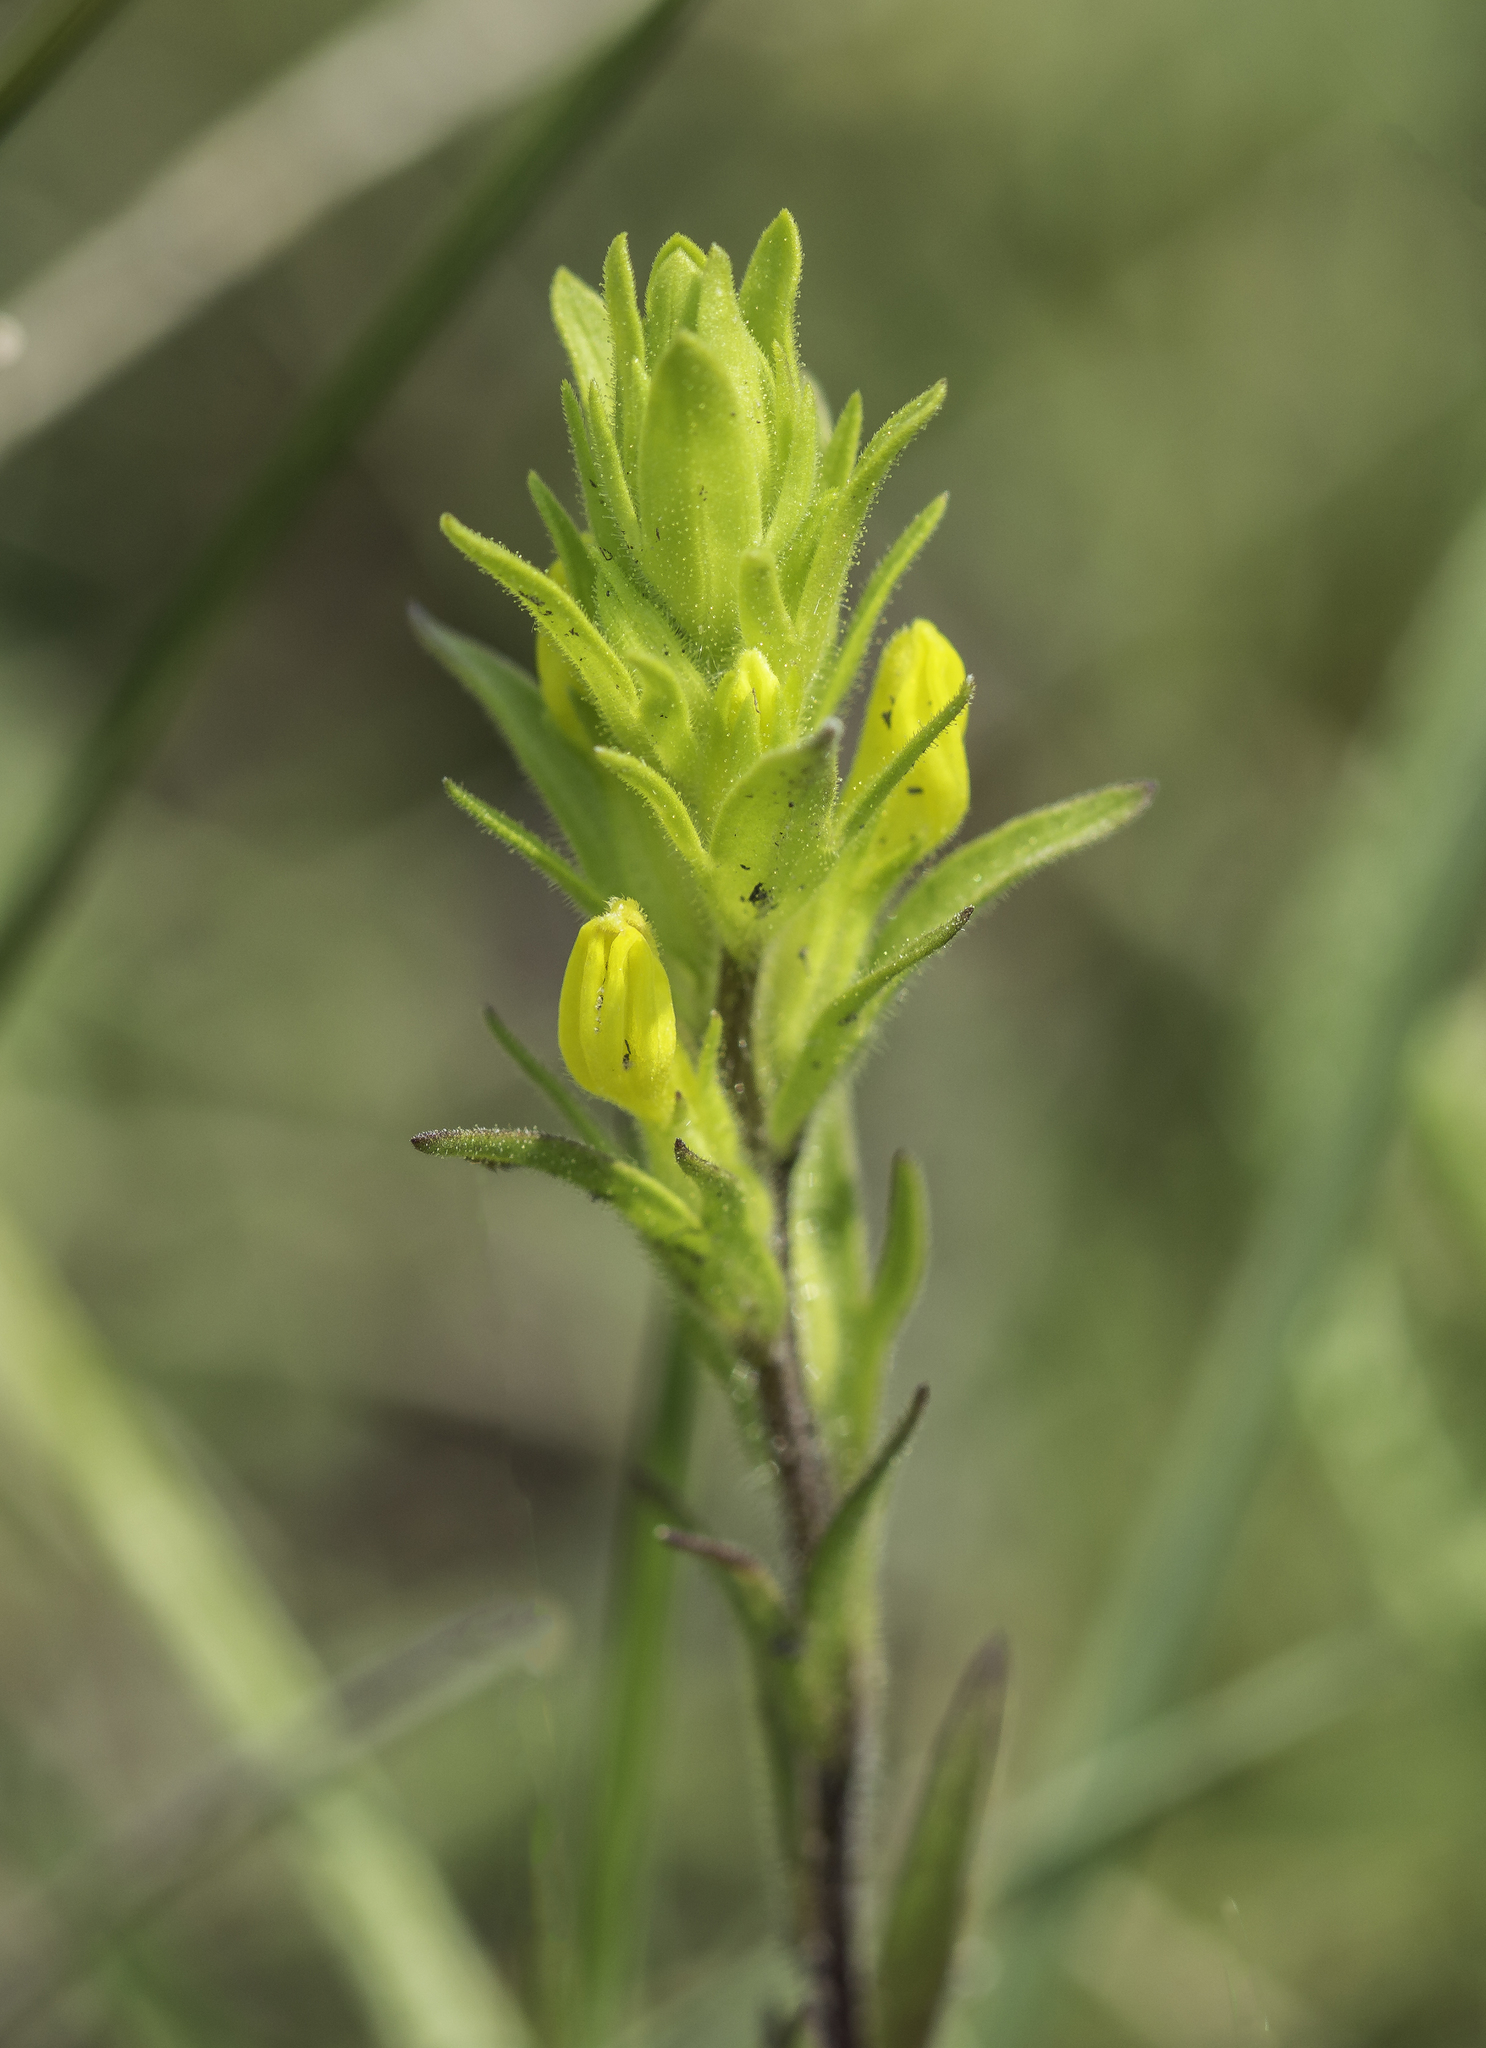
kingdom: Plantae
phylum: Tracheophyta
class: Magnoliopsida
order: Lamiales
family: Orobanchaceae
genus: Orthocarpus
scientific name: Orthocarpus luteus
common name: Golden-tongue owl's-clover
